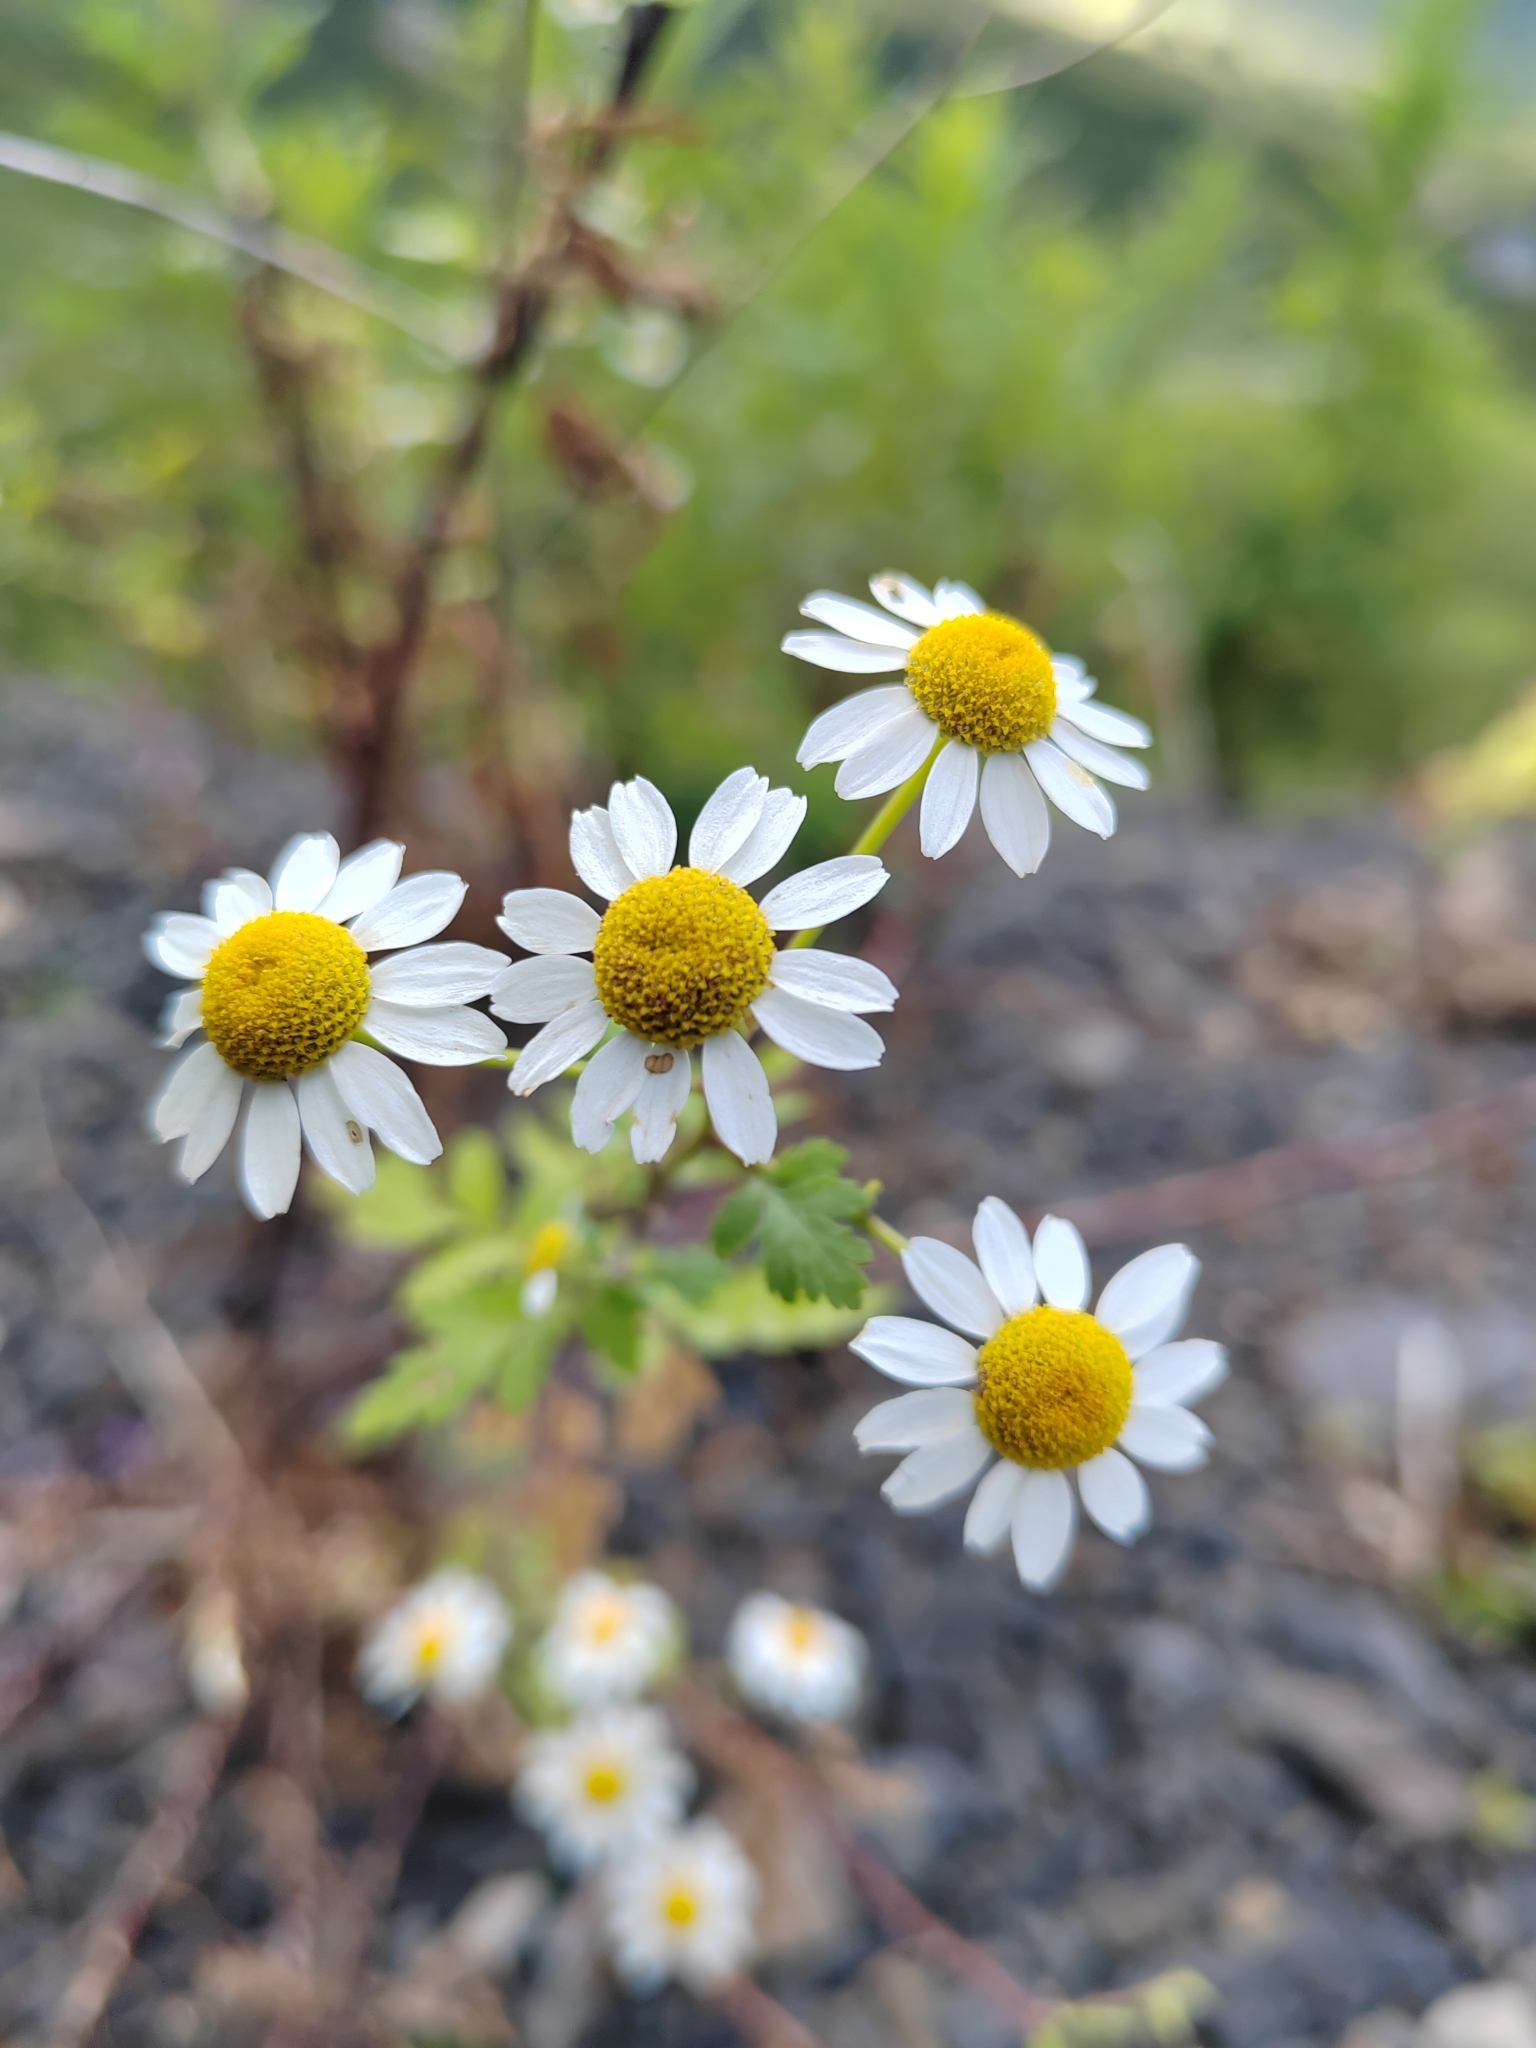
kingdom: Plantae
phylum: Tracheophyta
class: Magnoliopsida
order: Asterales
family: Asteraceae
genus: Tanacetum
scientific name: Tanacetum parthenium
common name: Feverfew
